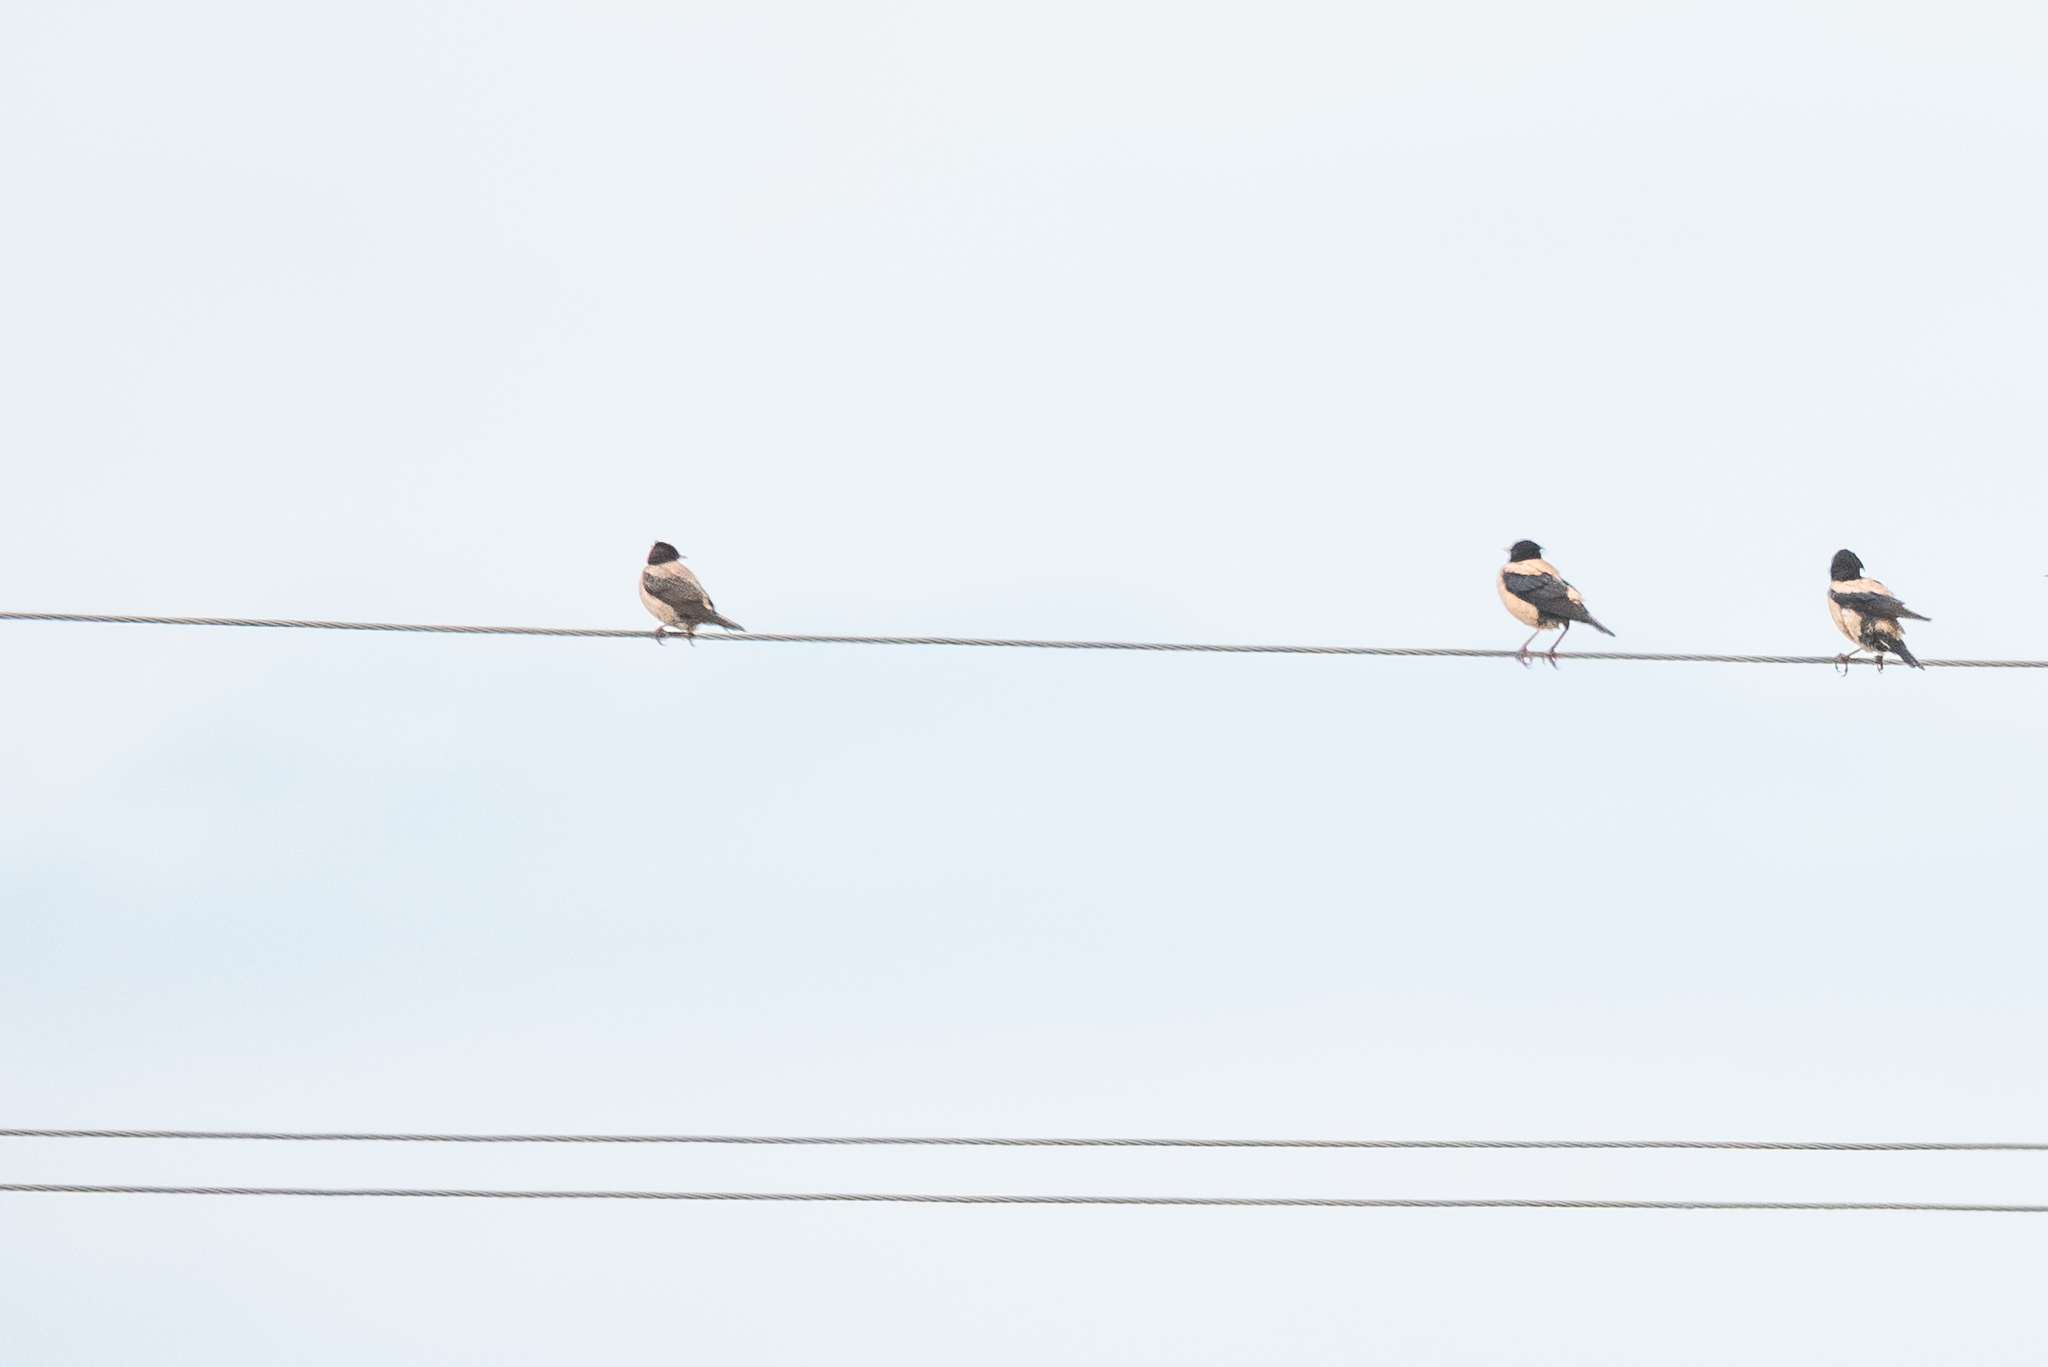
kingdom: Animalia
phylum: Chordata
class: Aves
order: Passeriformes
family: Sturnidae
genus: Pastor
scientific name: Pastor roseus
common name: Rosy starling
